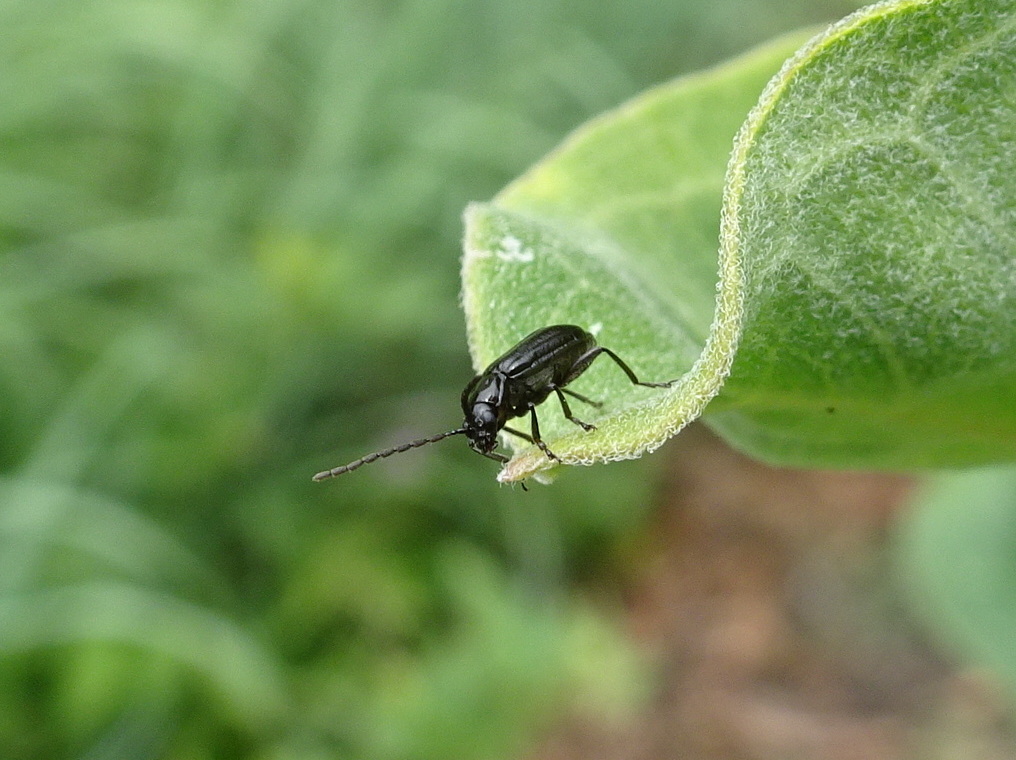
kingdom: Animalia
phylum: Arthropoda
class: Insecta
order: Coleoptera
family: Chrysomelidae
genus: Diabrotica
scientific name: Diabrotica cristata
